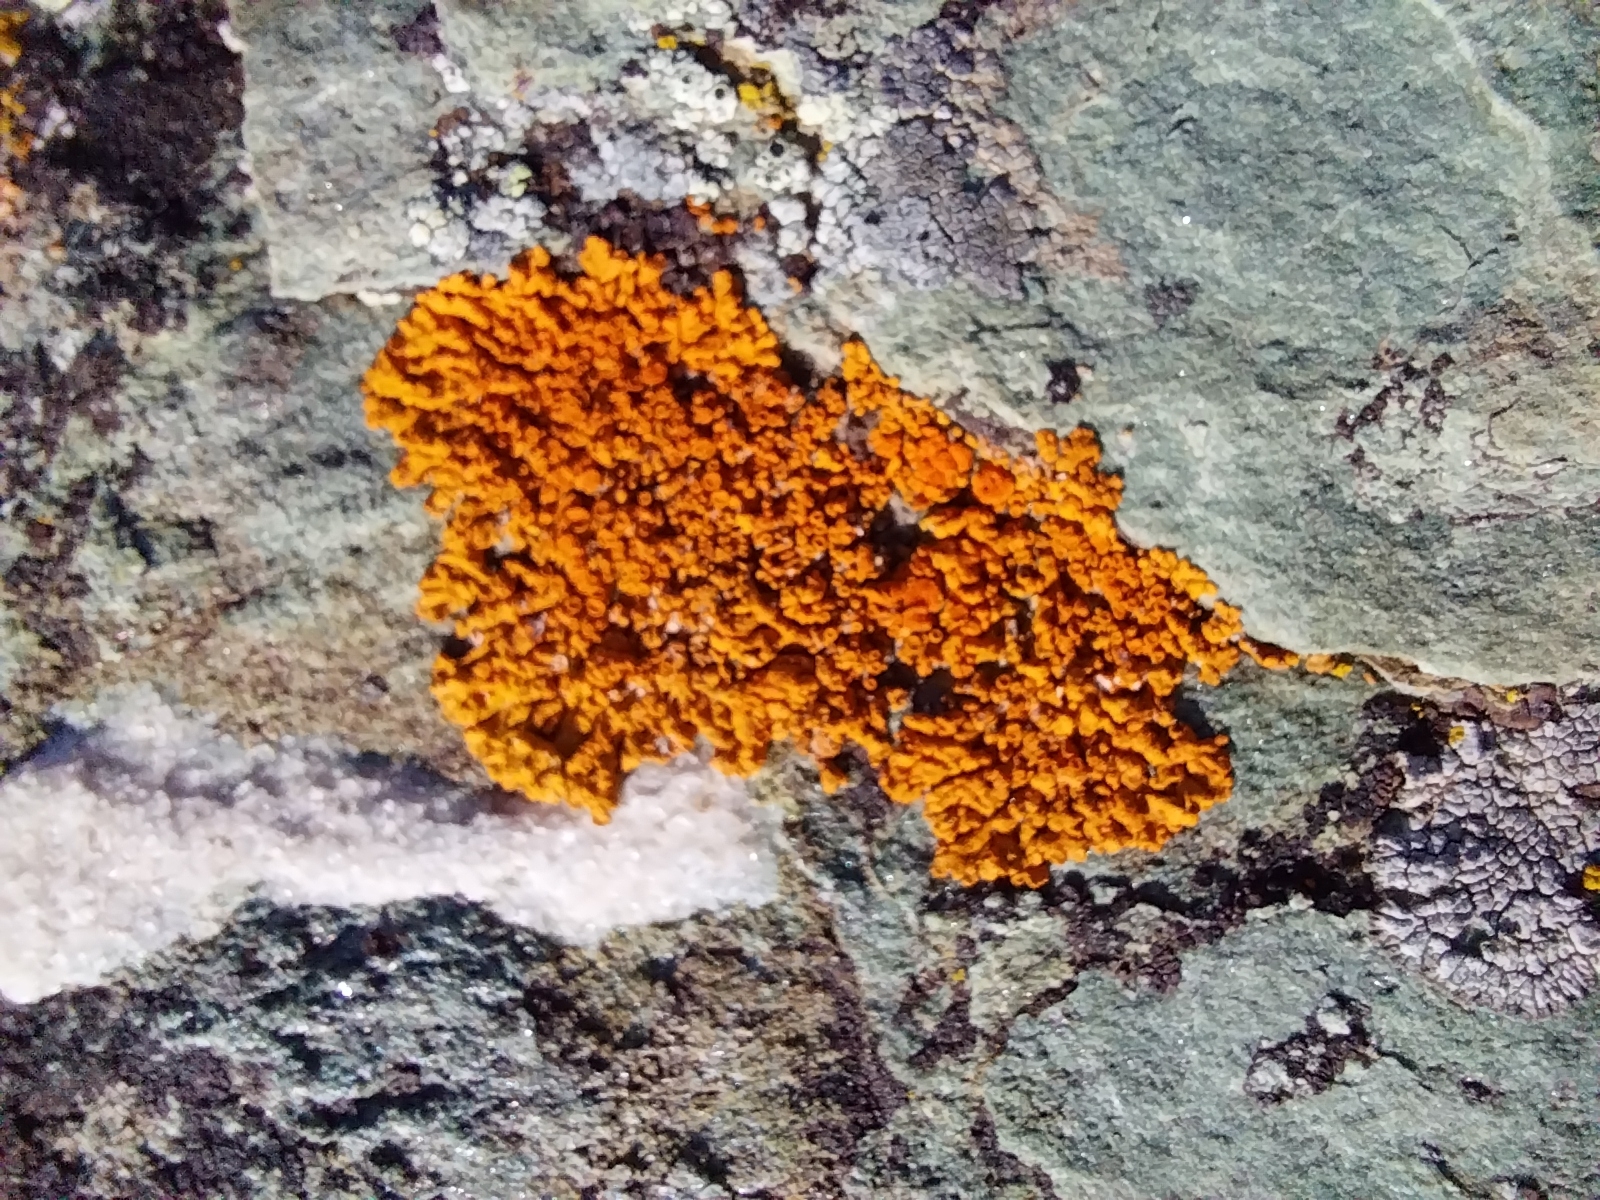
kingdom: Fungi
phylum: Ascomycota
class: Lecanoromycetes
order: Teloschistales
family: Teloschistaceae
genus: Xanthoria
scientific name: Xanthoria elegans
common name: Elegant sunburst lichen
